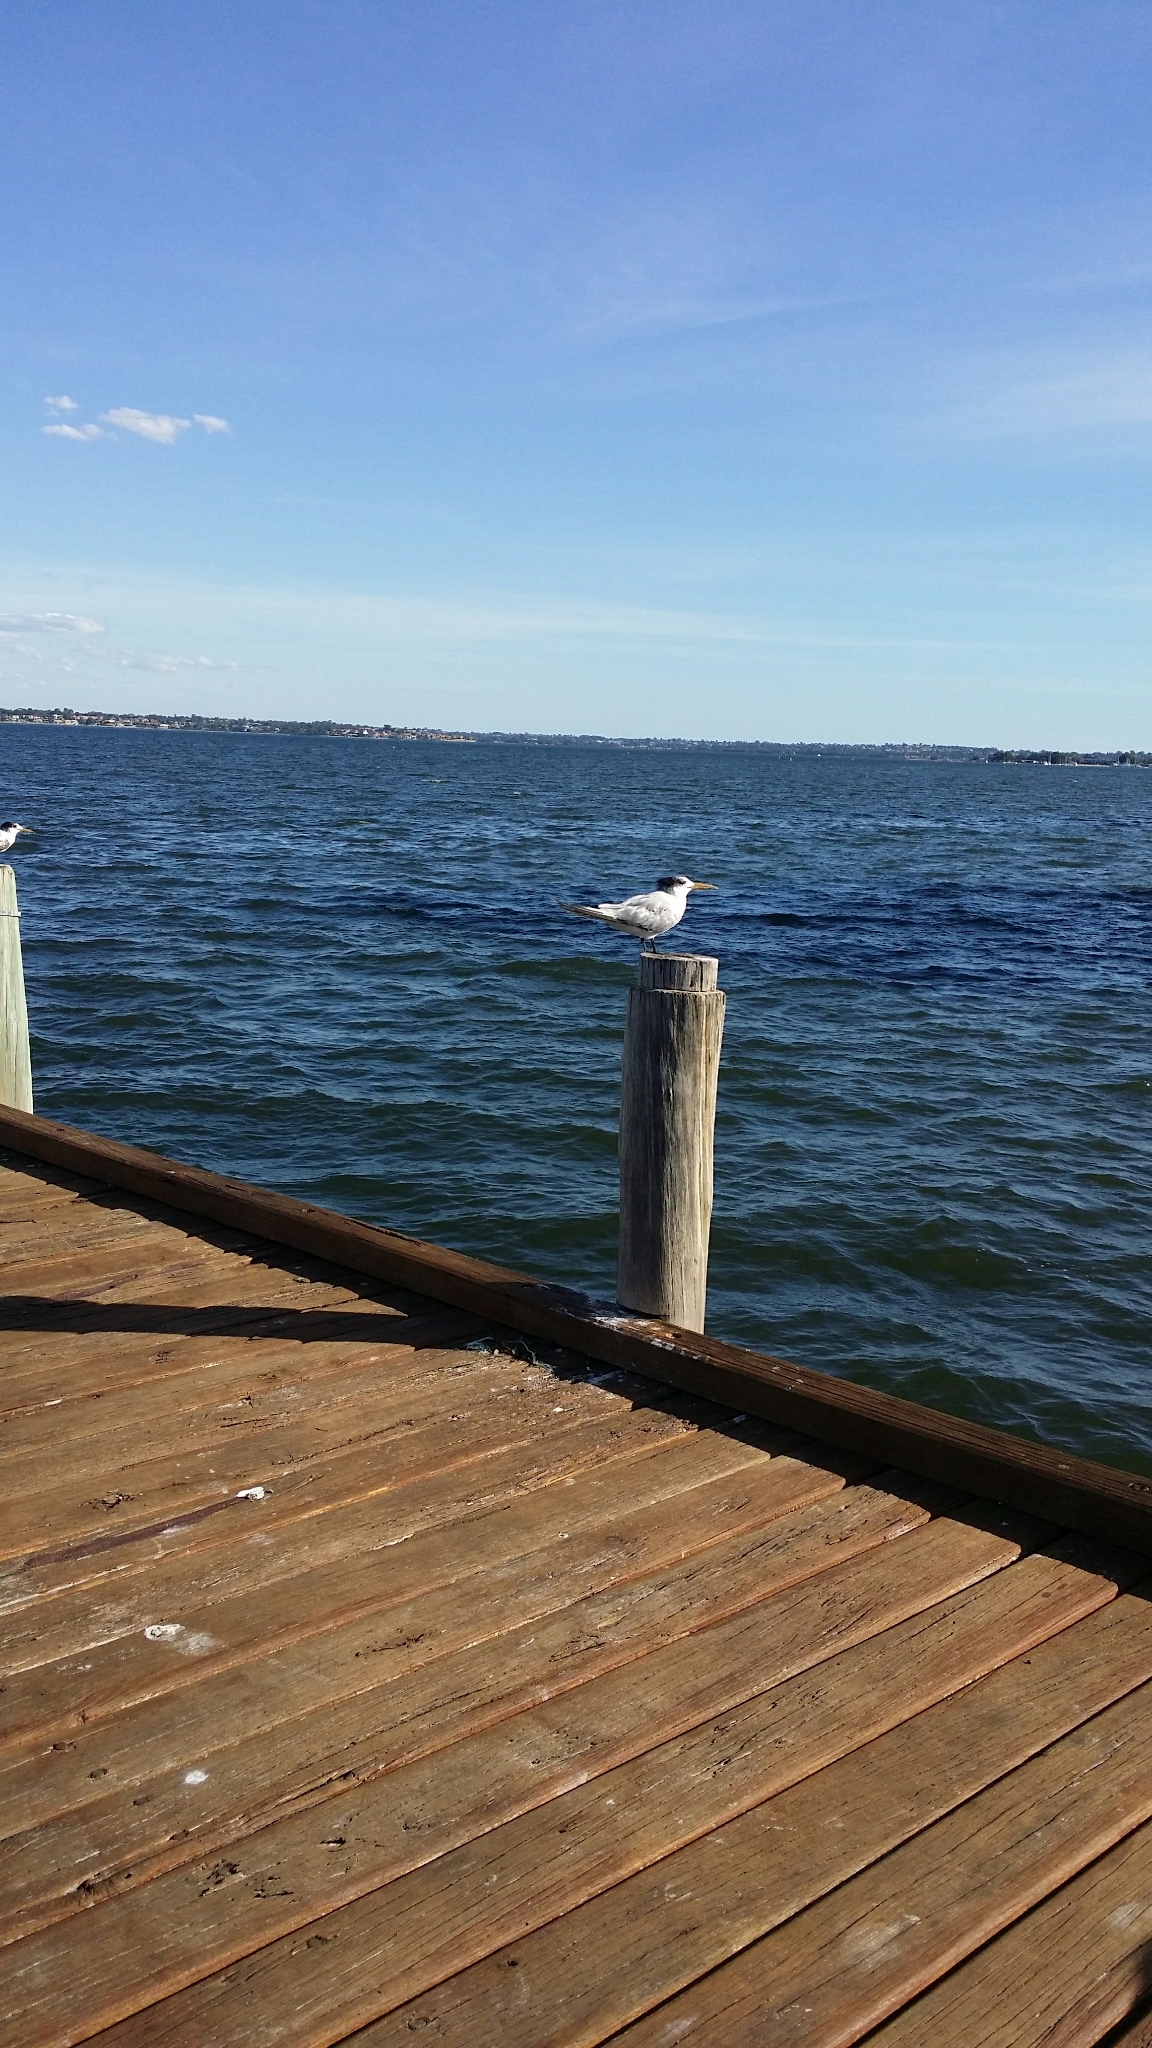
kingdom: Animalia
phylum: Chordata
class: Aves
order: Charadriiformes
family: Laridae
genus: Thalasseus
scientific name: Thalasseus bergii
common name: Greater crested tern
